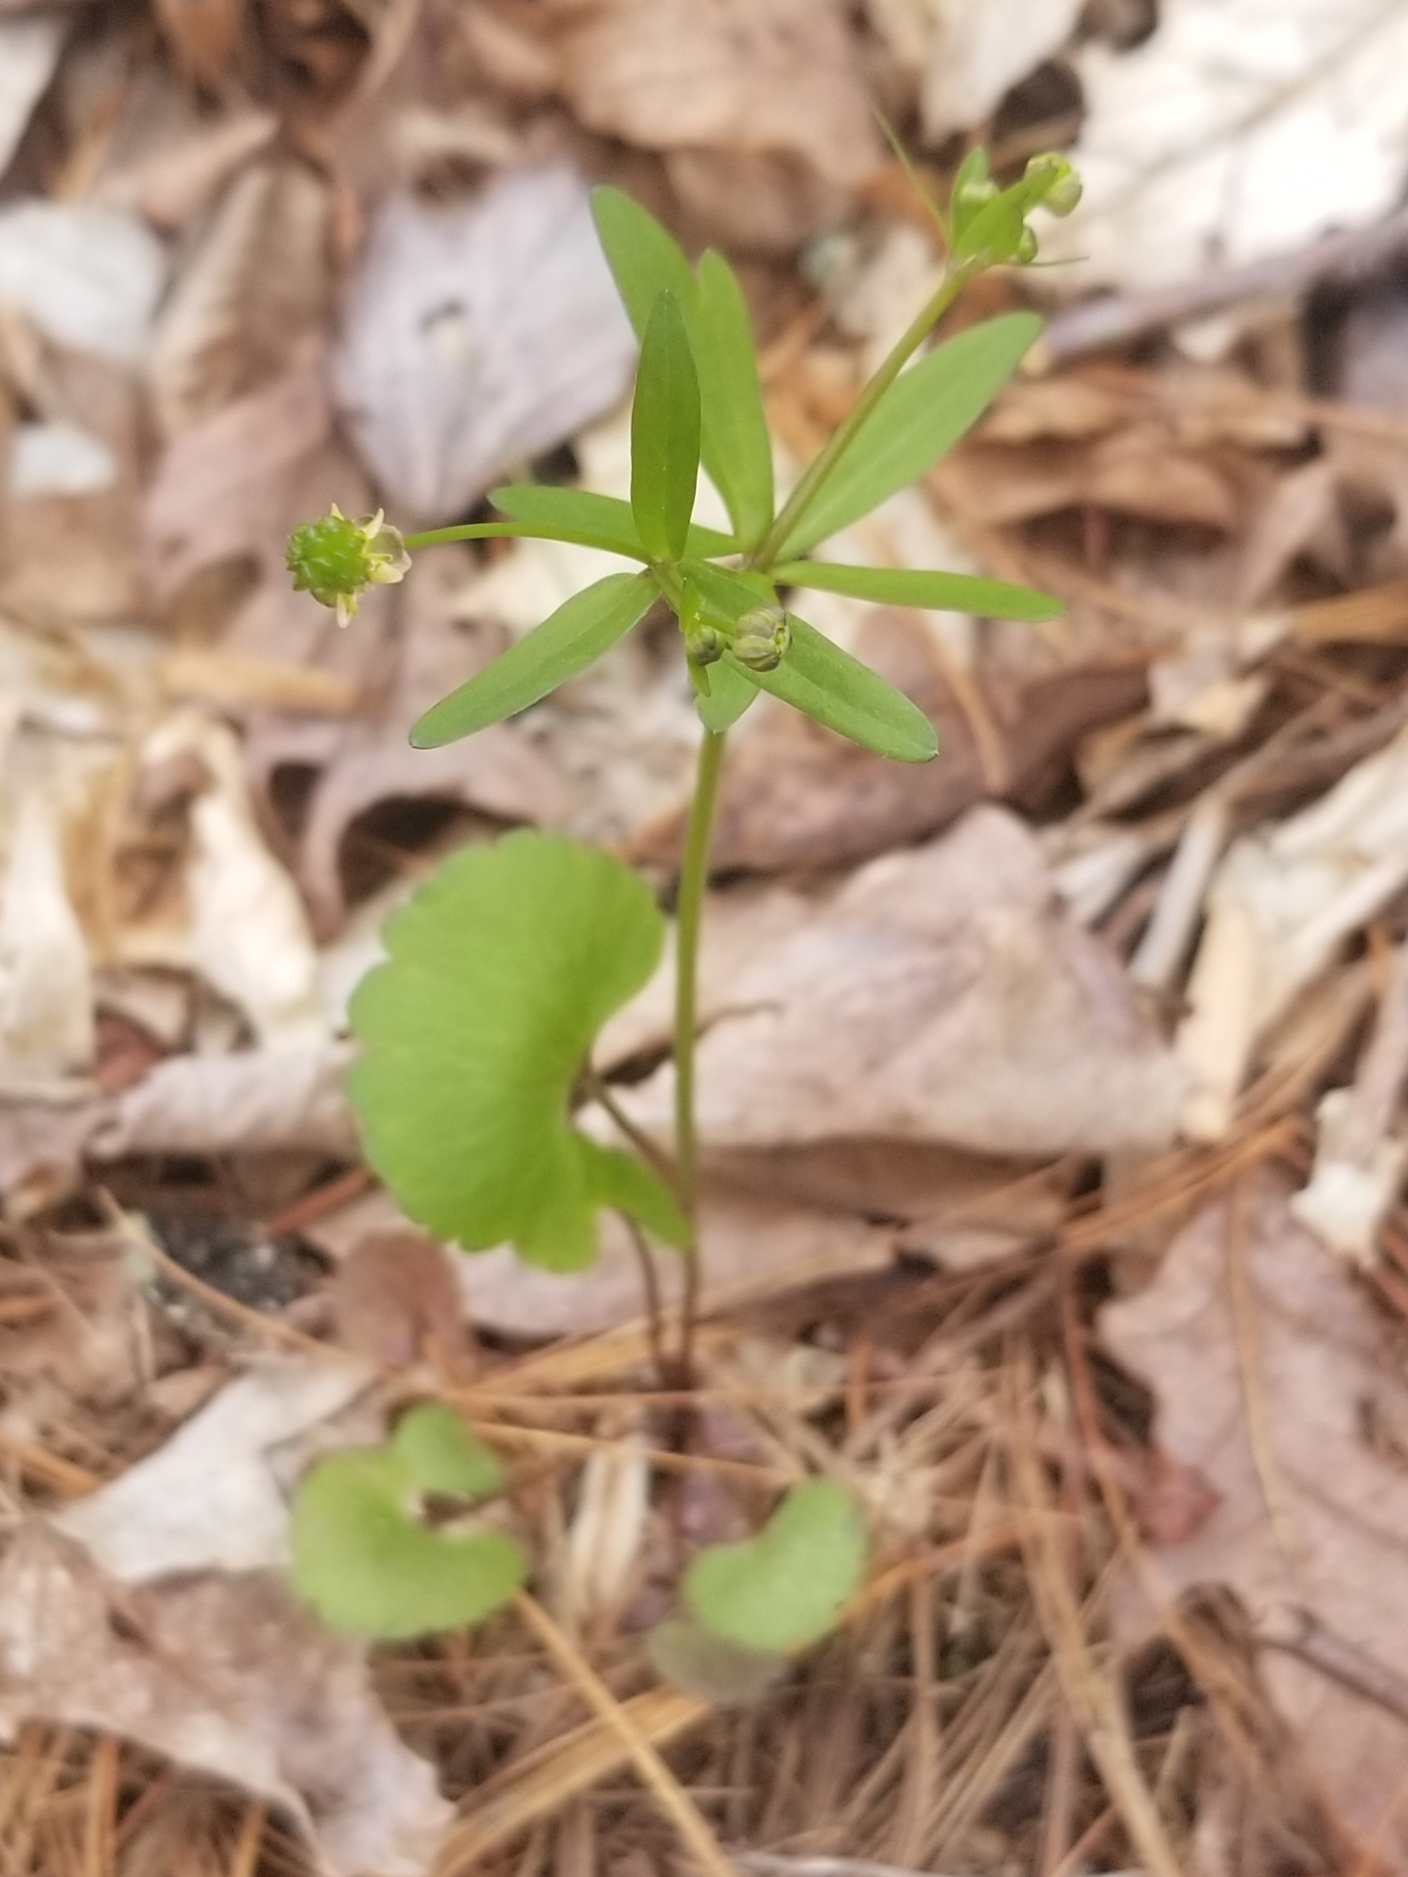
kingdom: Plantae
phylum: Tracheophyta
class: Magnoliopsida
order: Ranunculales
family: Ranunculaceae
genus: Ranunculus
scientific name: Ranunculus abortivus
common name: Early wood buttercup
